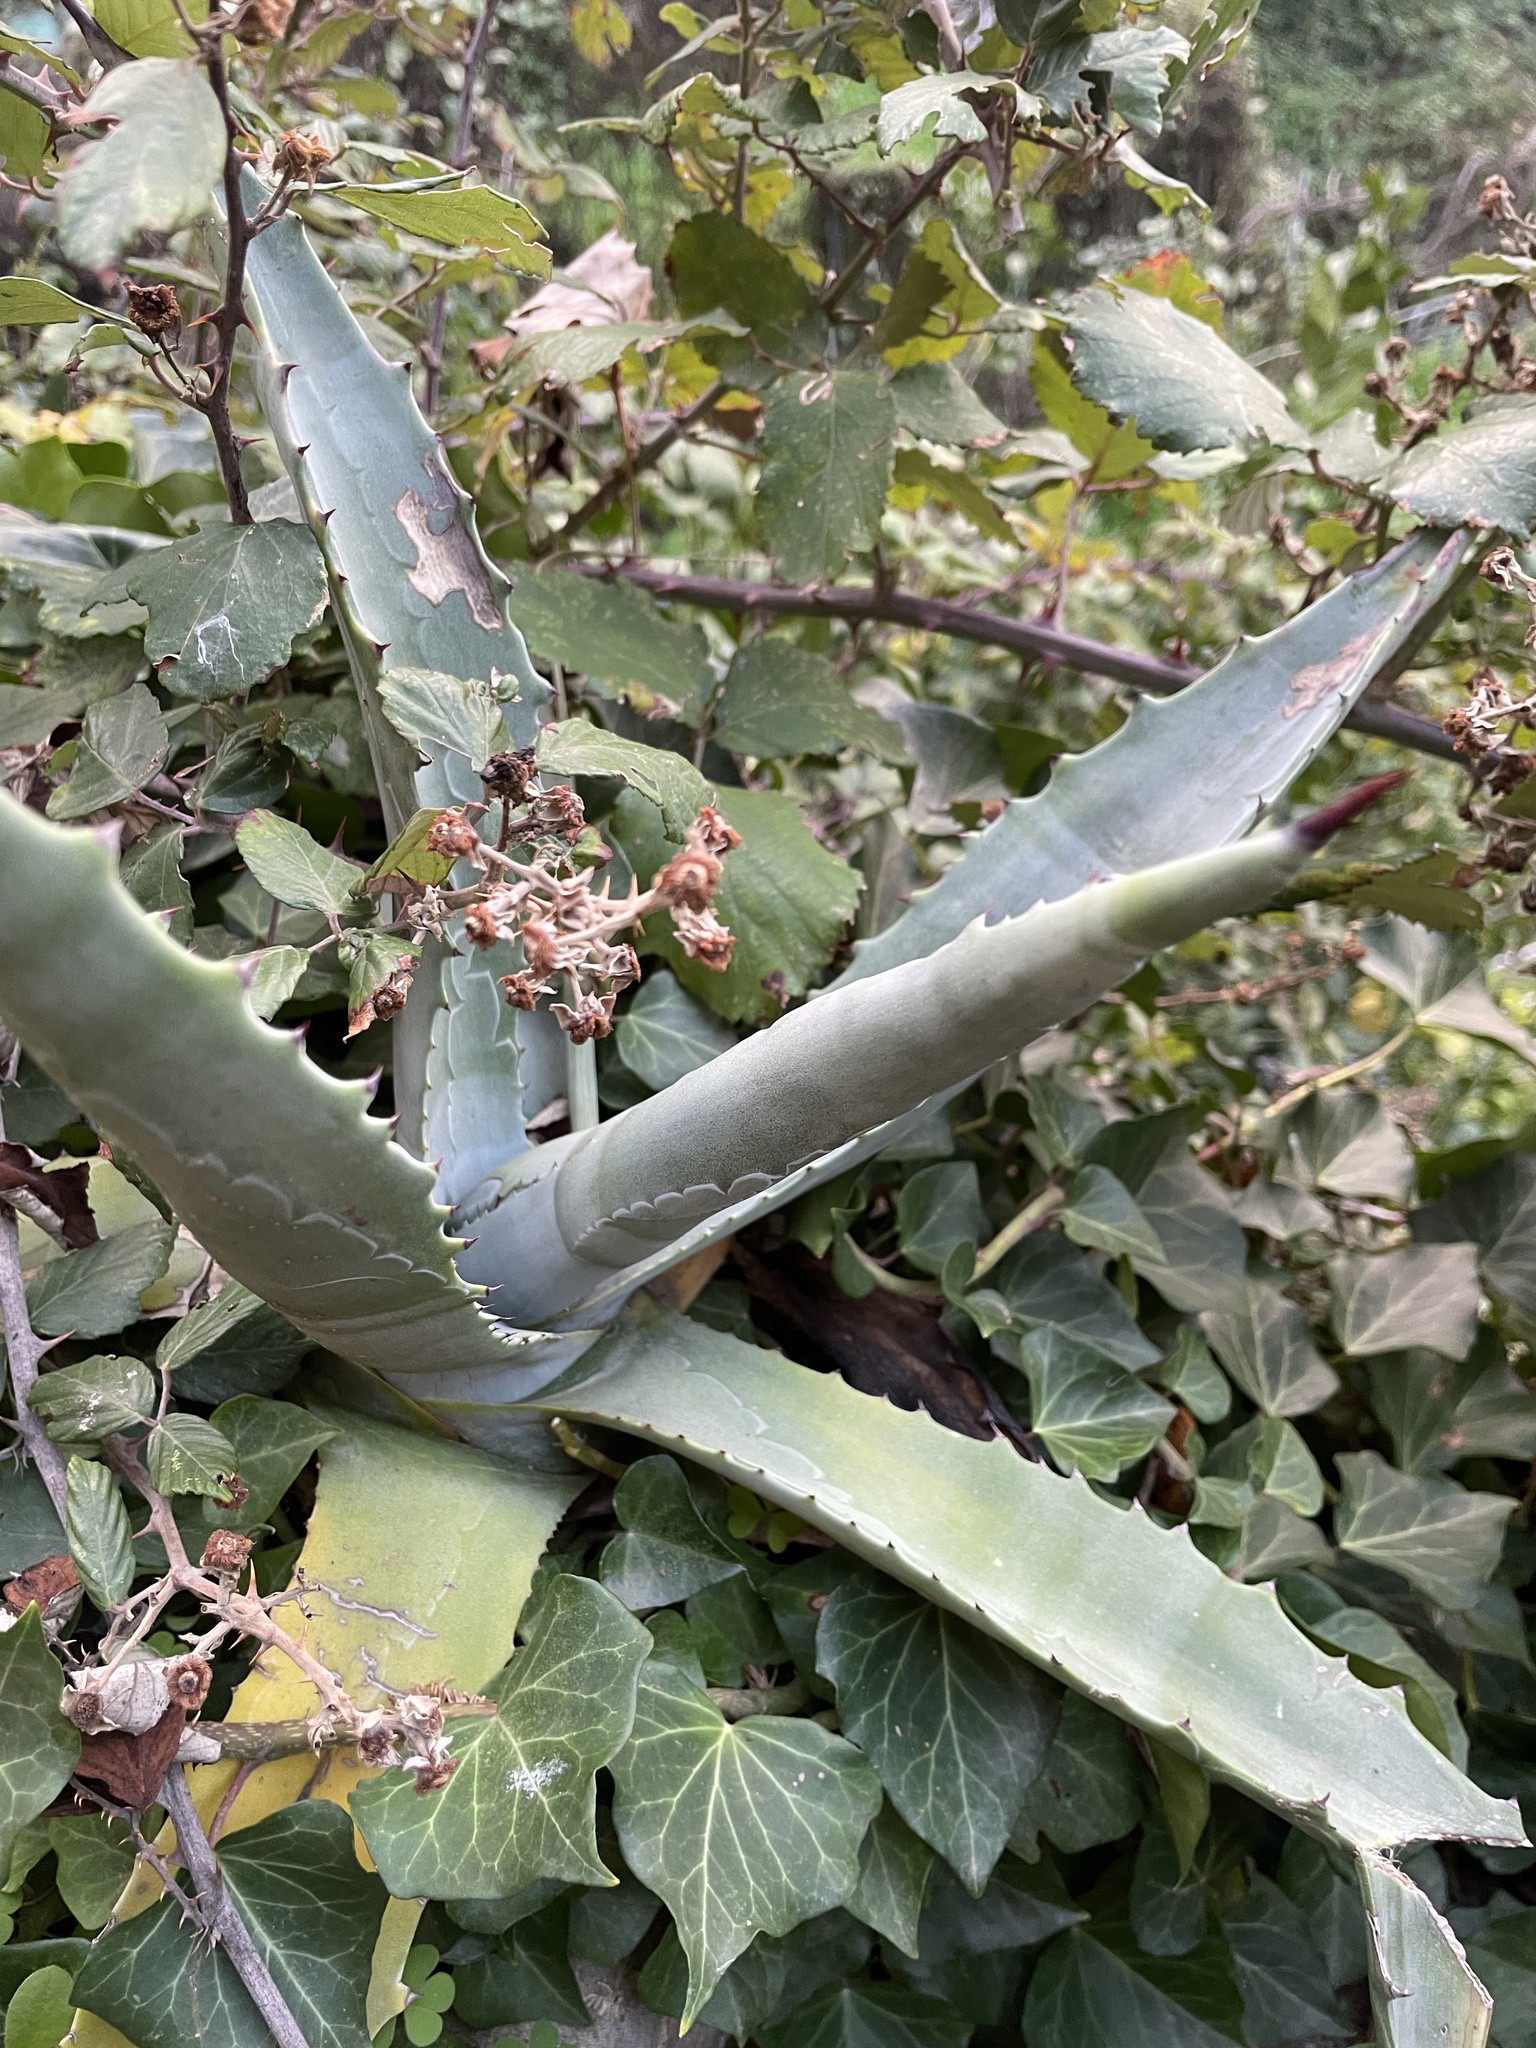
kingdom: Plantae
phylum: Tracheophyta
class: Liliopsida
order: Asparagales
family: Asparagaceae
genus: Agave
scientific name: Agave americana
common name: Centuryplant
